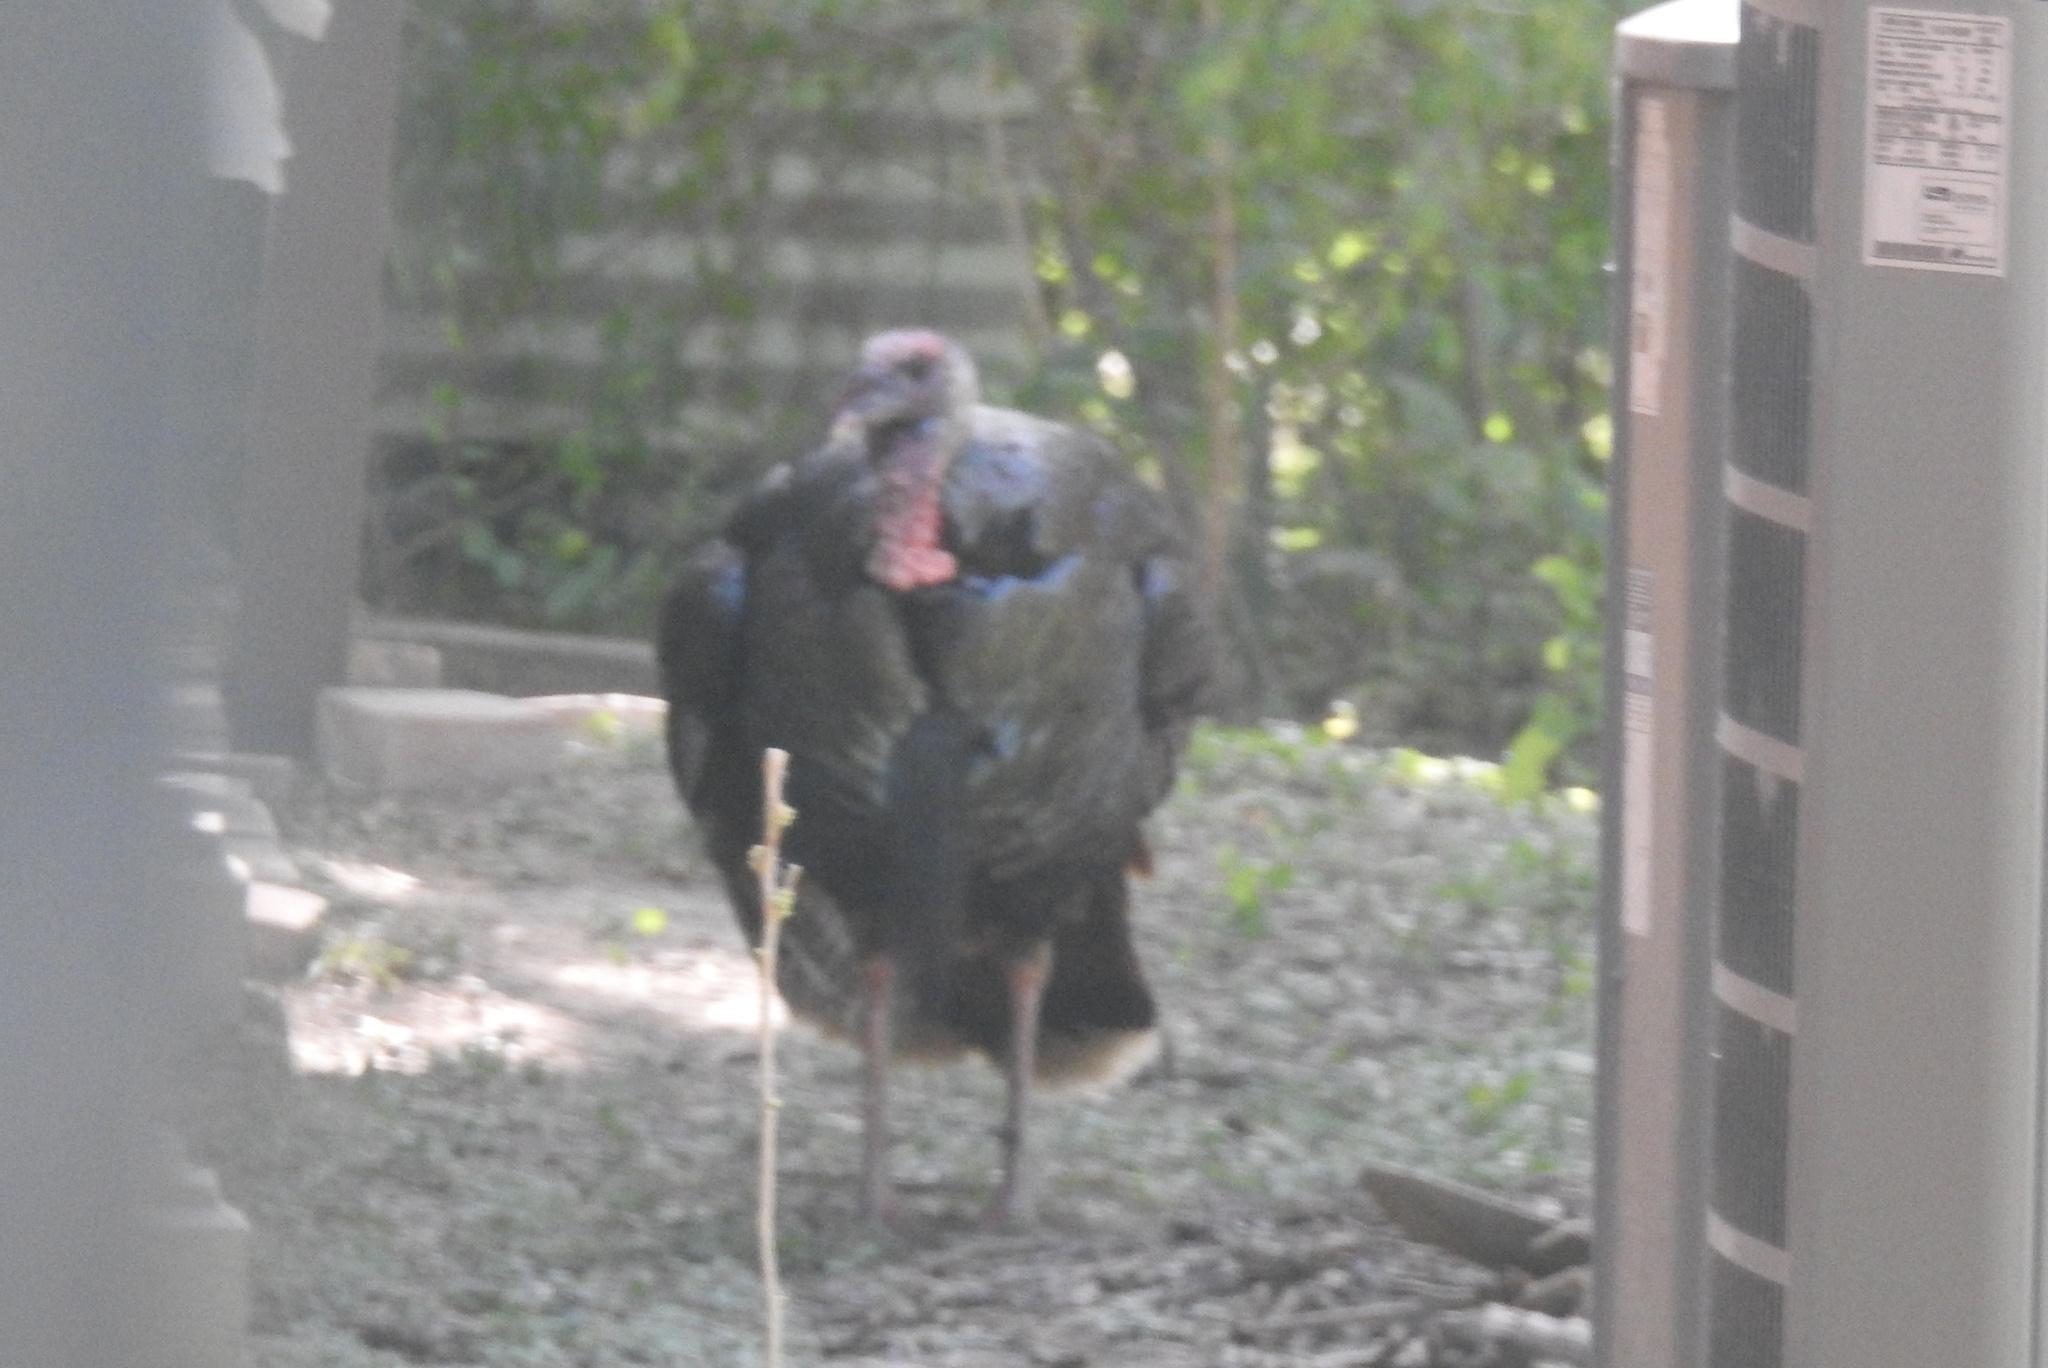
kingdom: Animalia
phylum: Chordata
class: Aves
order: Galliformes
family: Phasianidae
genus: Meleagris
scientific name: Meleagris gallopavo
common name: Wild turkey
